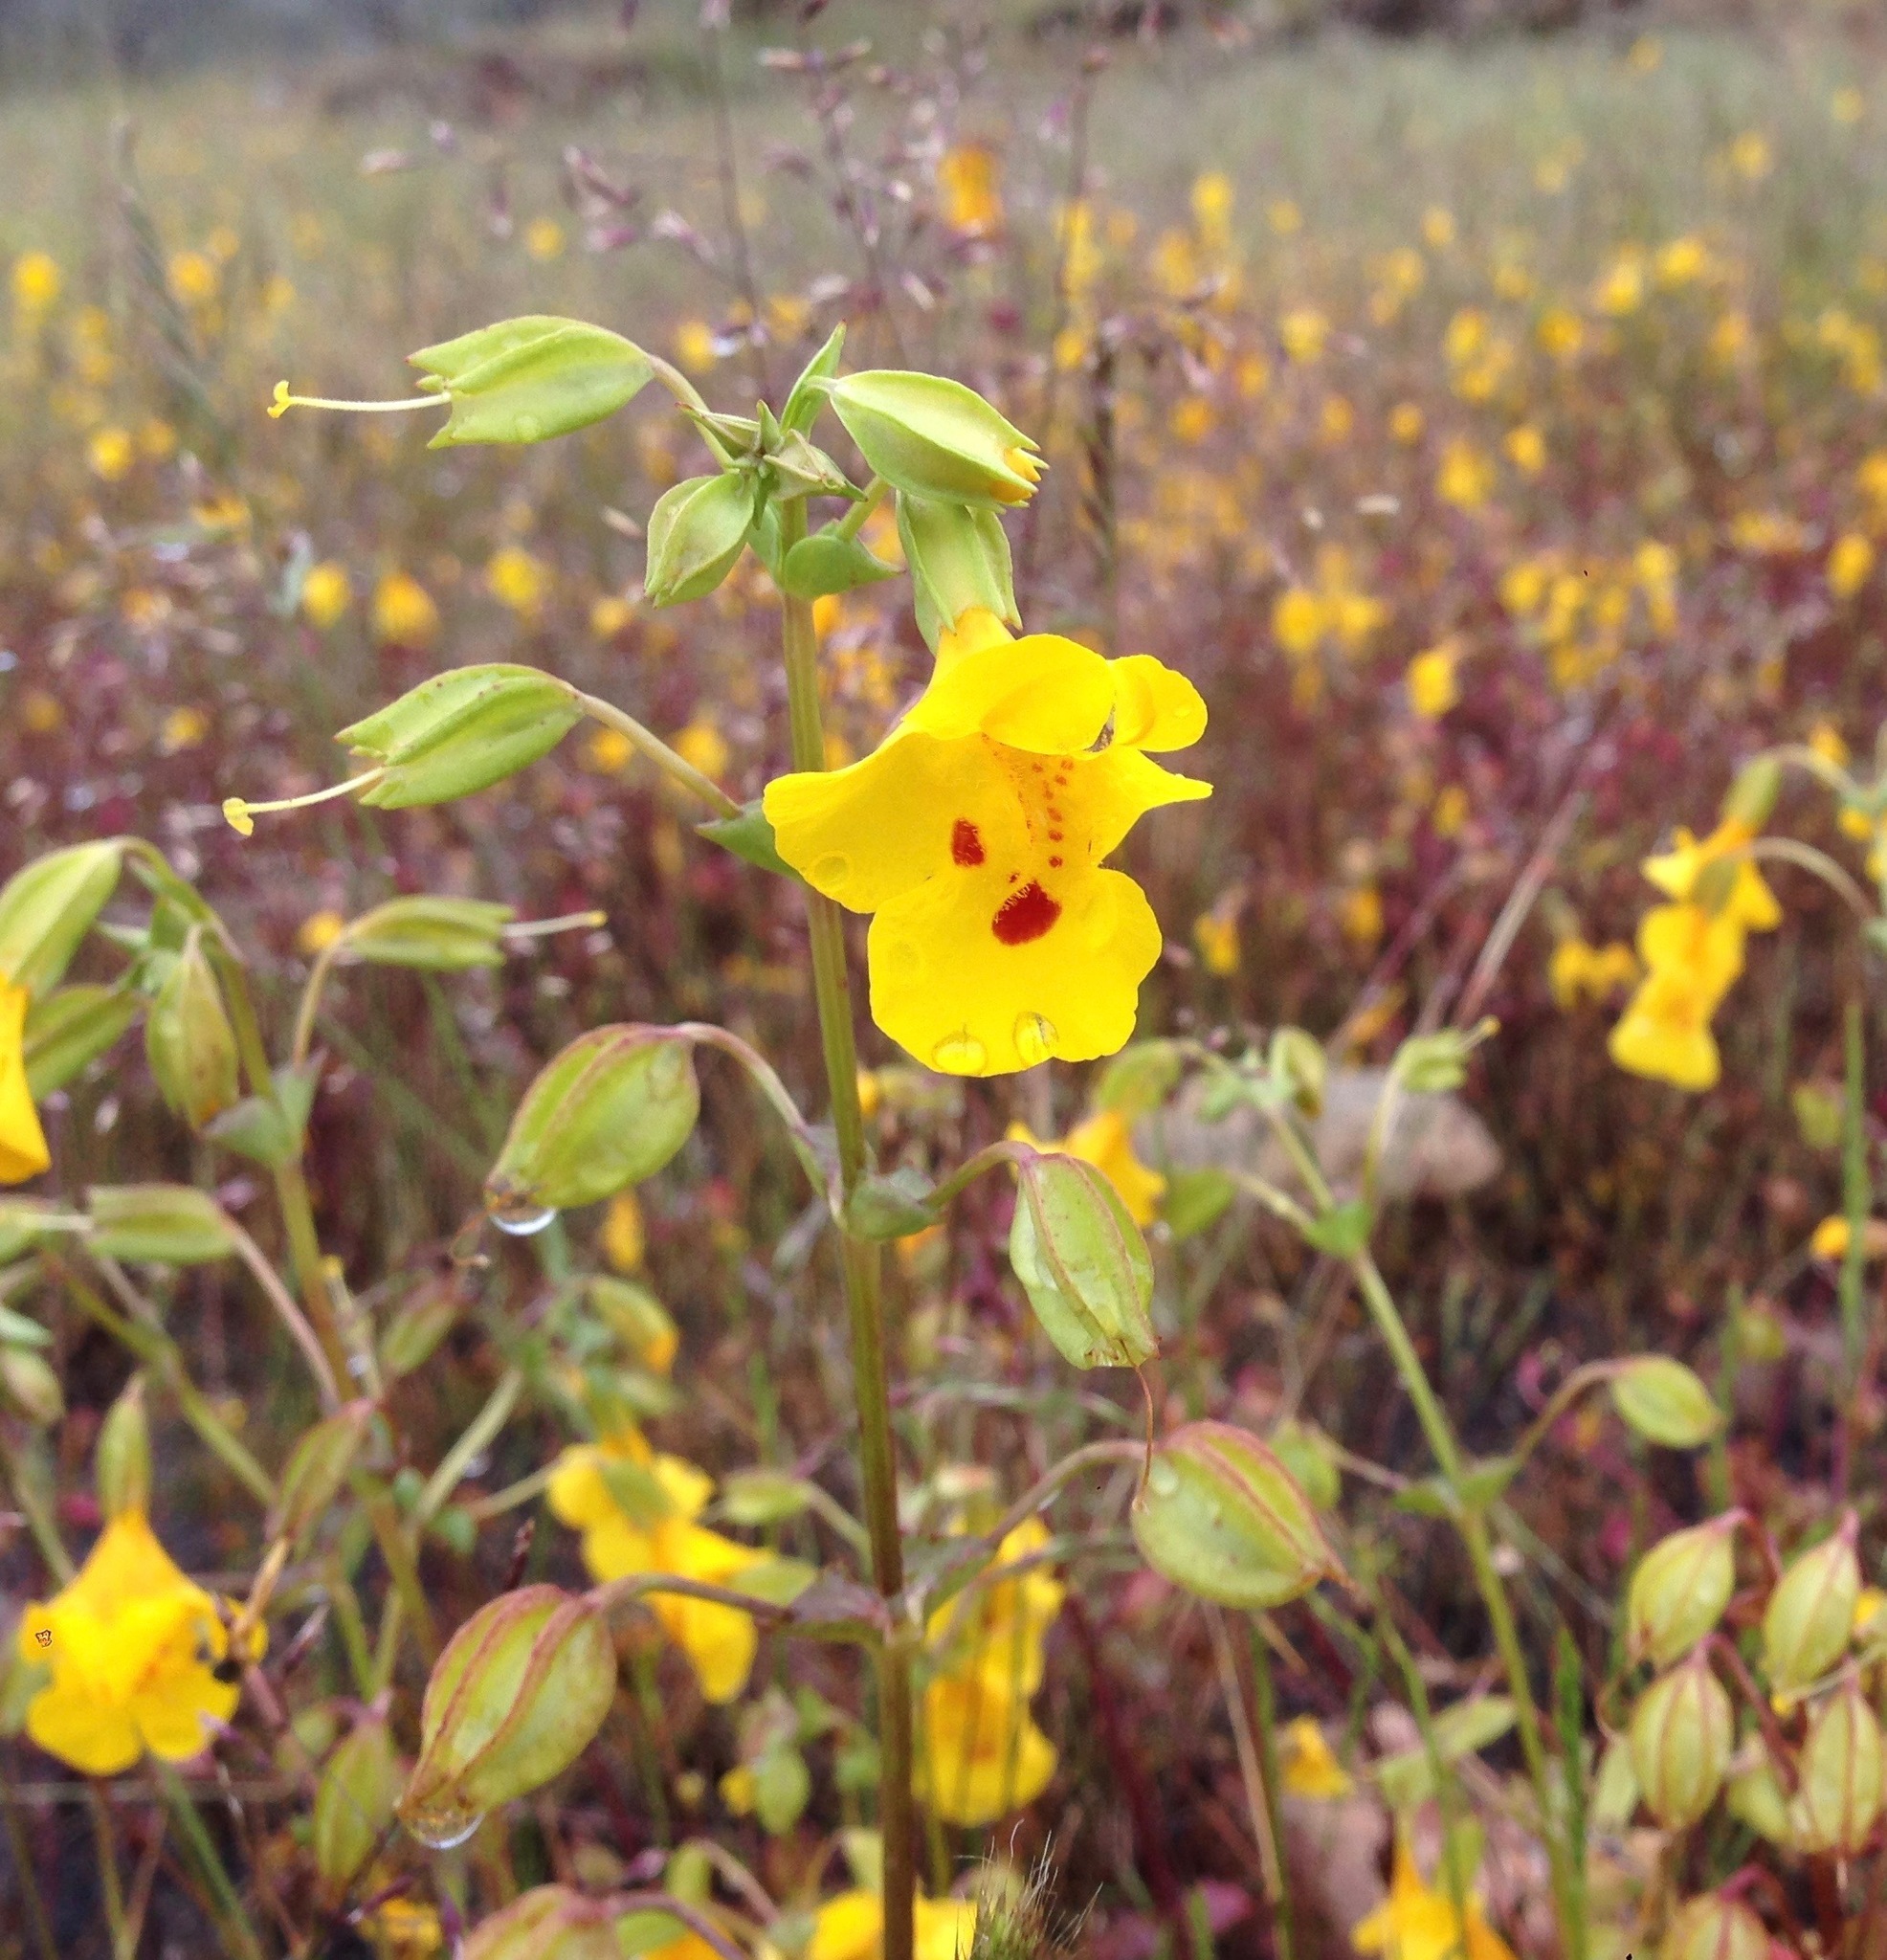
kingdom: Plantae
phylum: Tracheophyta
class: Magnoliopsida
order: Lamiales
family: Phrymaceae
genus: Erythranthe
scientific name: Erythranthe guttata
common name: Monkeyflower
